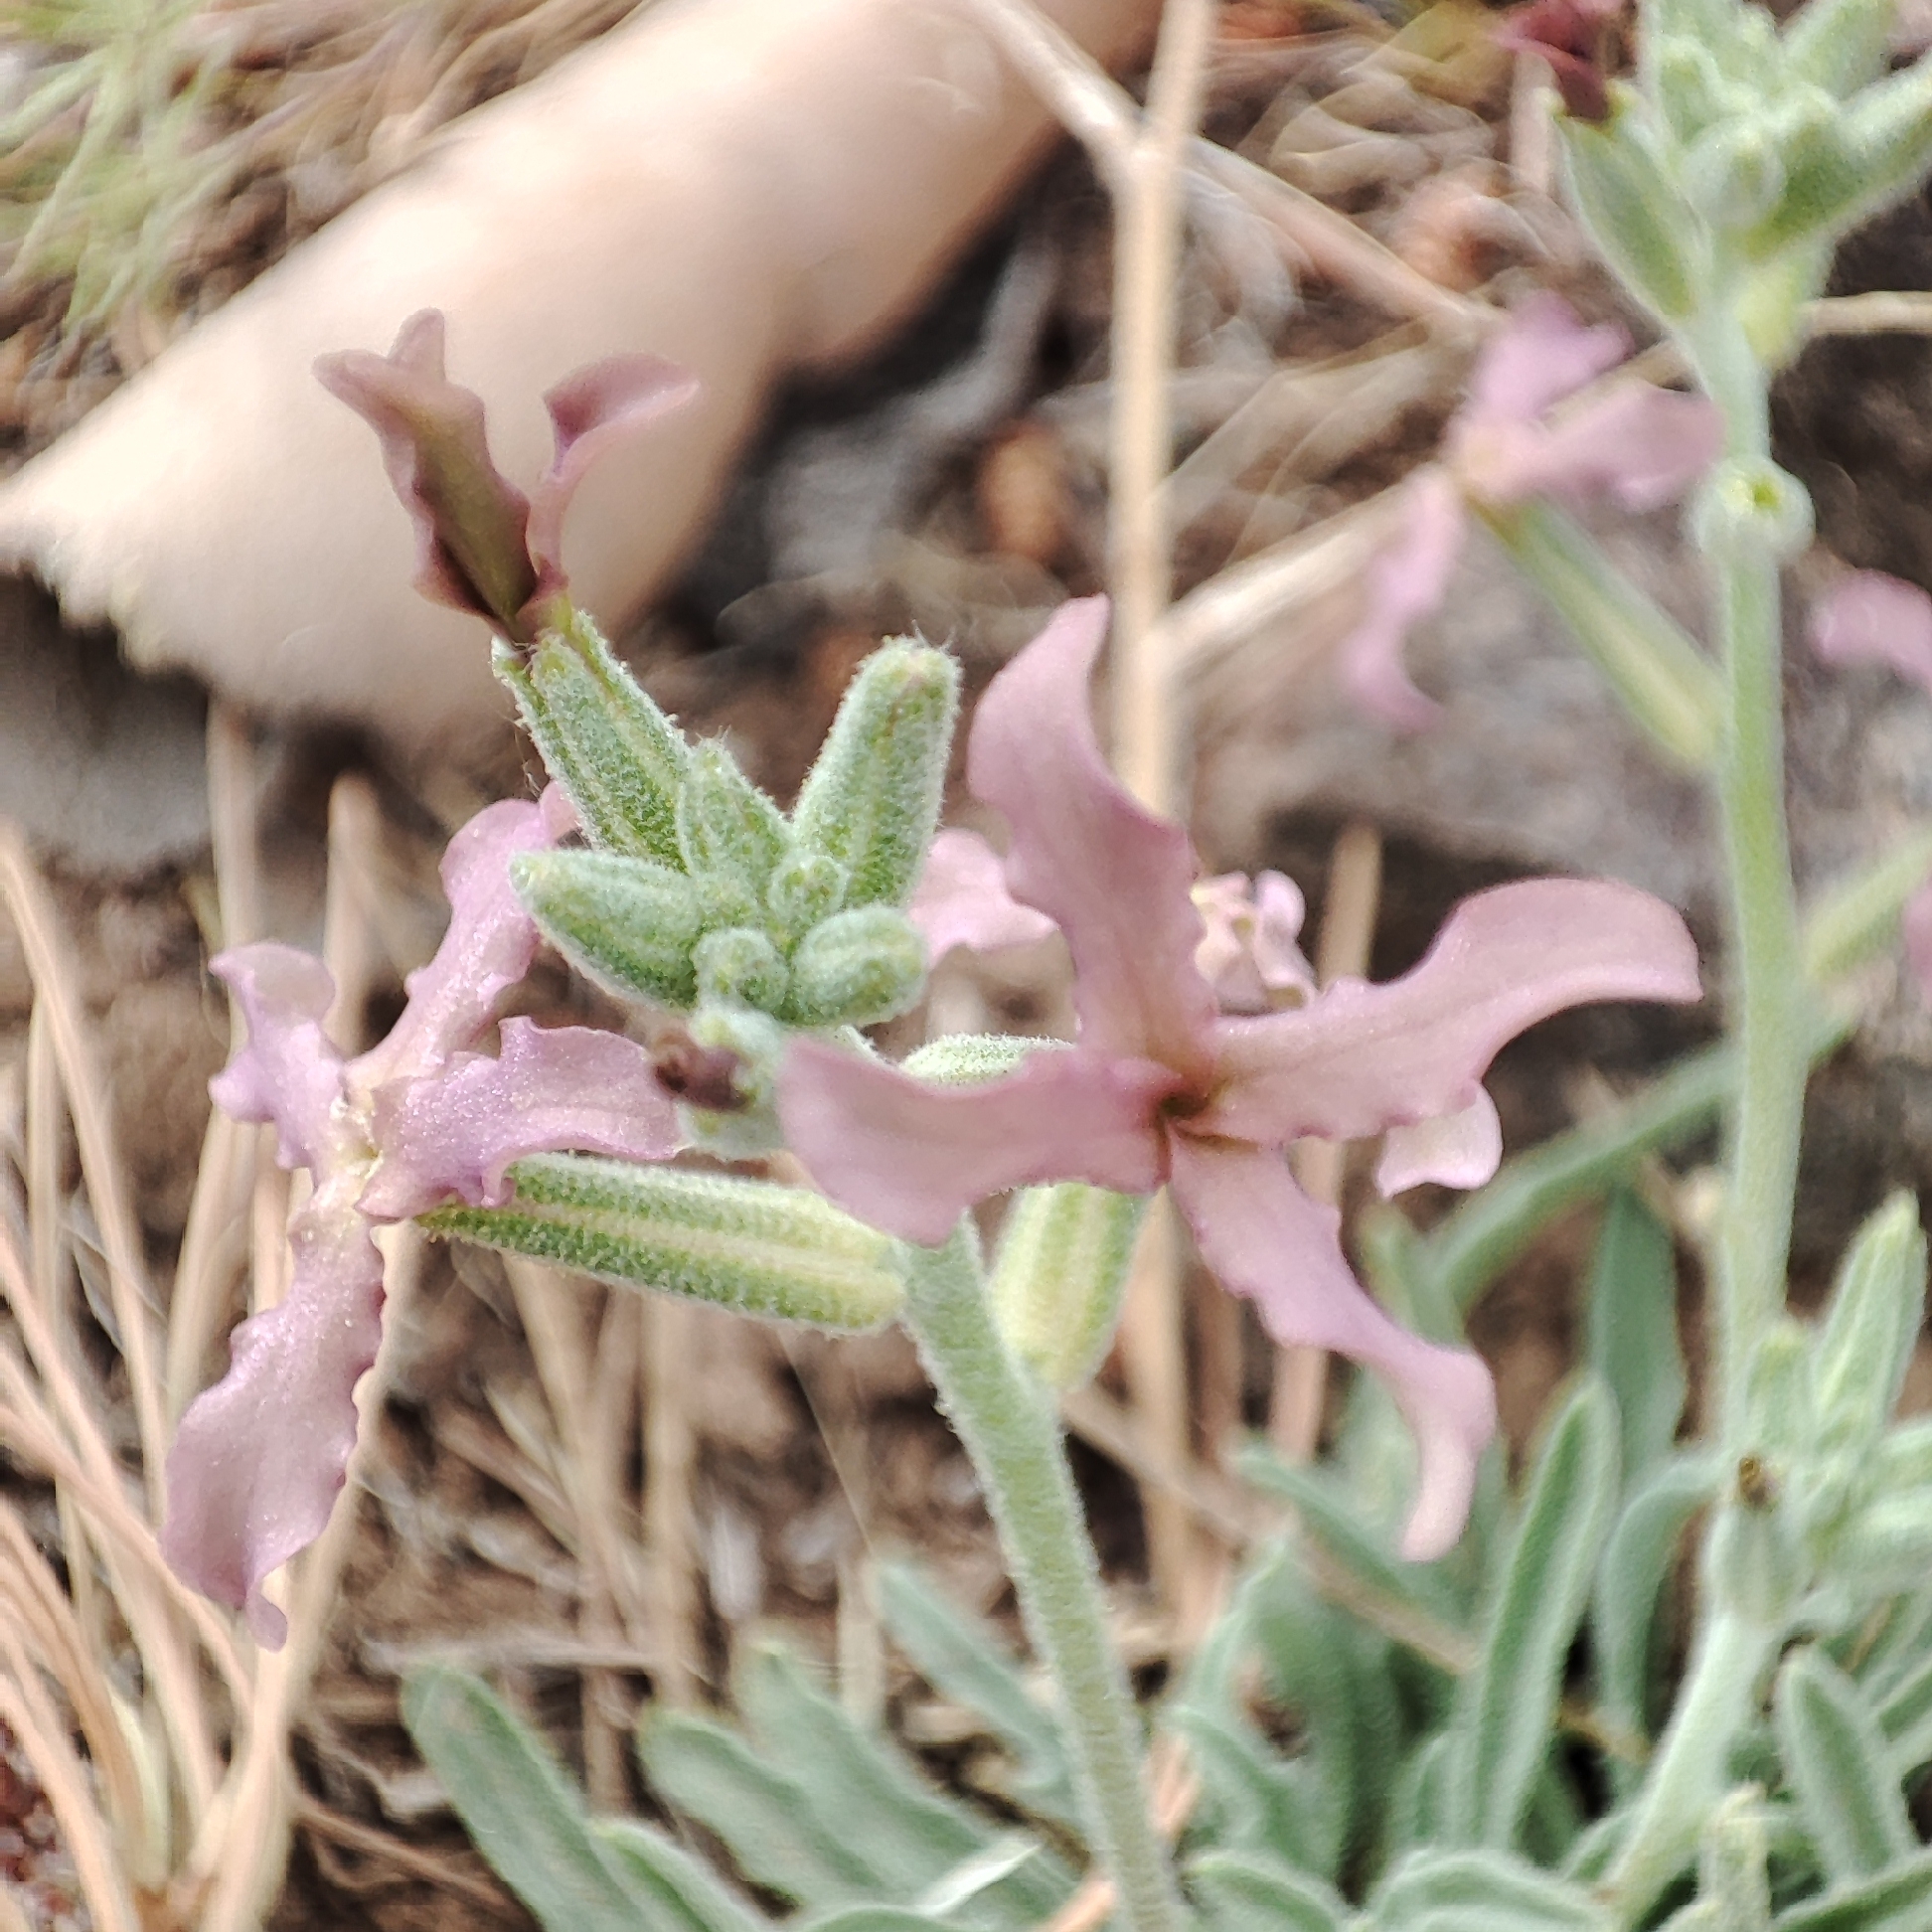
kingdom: Plantae
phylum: Tracheophyta
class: Magnoliopsida
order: Brassicales
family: Brassicaceae
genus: Matthiola
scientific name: Matthiola fruticulosa
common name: Sad stock
